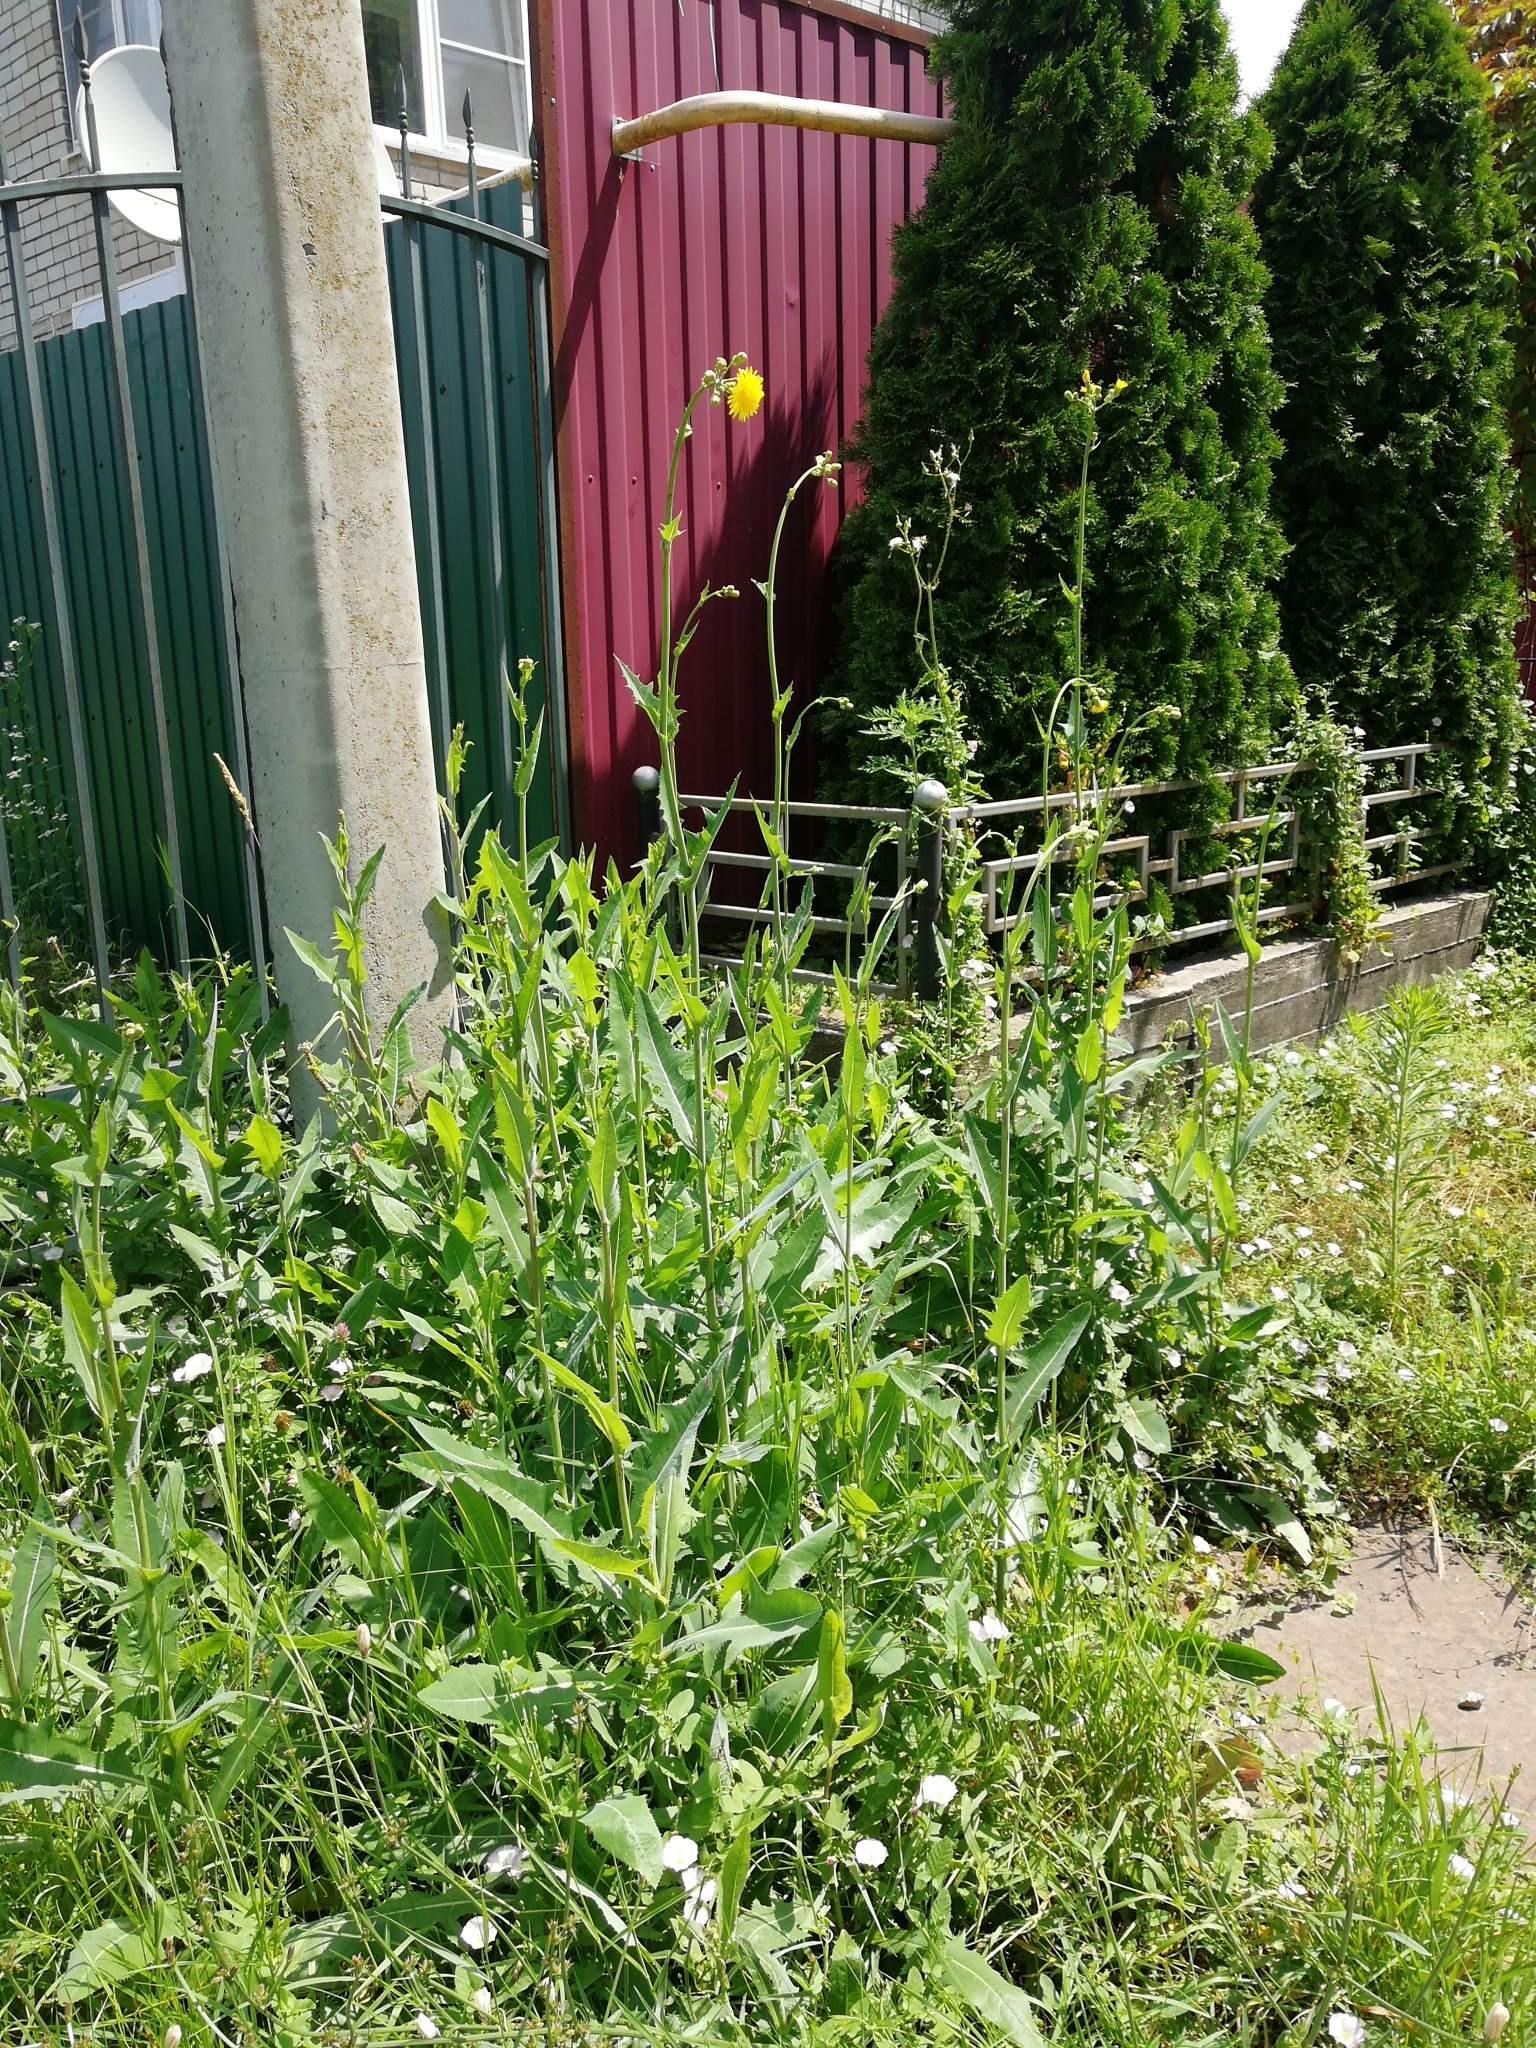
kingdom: Plantae
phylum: Tracheophyta
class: Magnoliopsida
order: Asterales
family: Asteraceae
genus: Sonchus
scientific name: Sonchus arvensis
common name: Perennial sow-thistle
